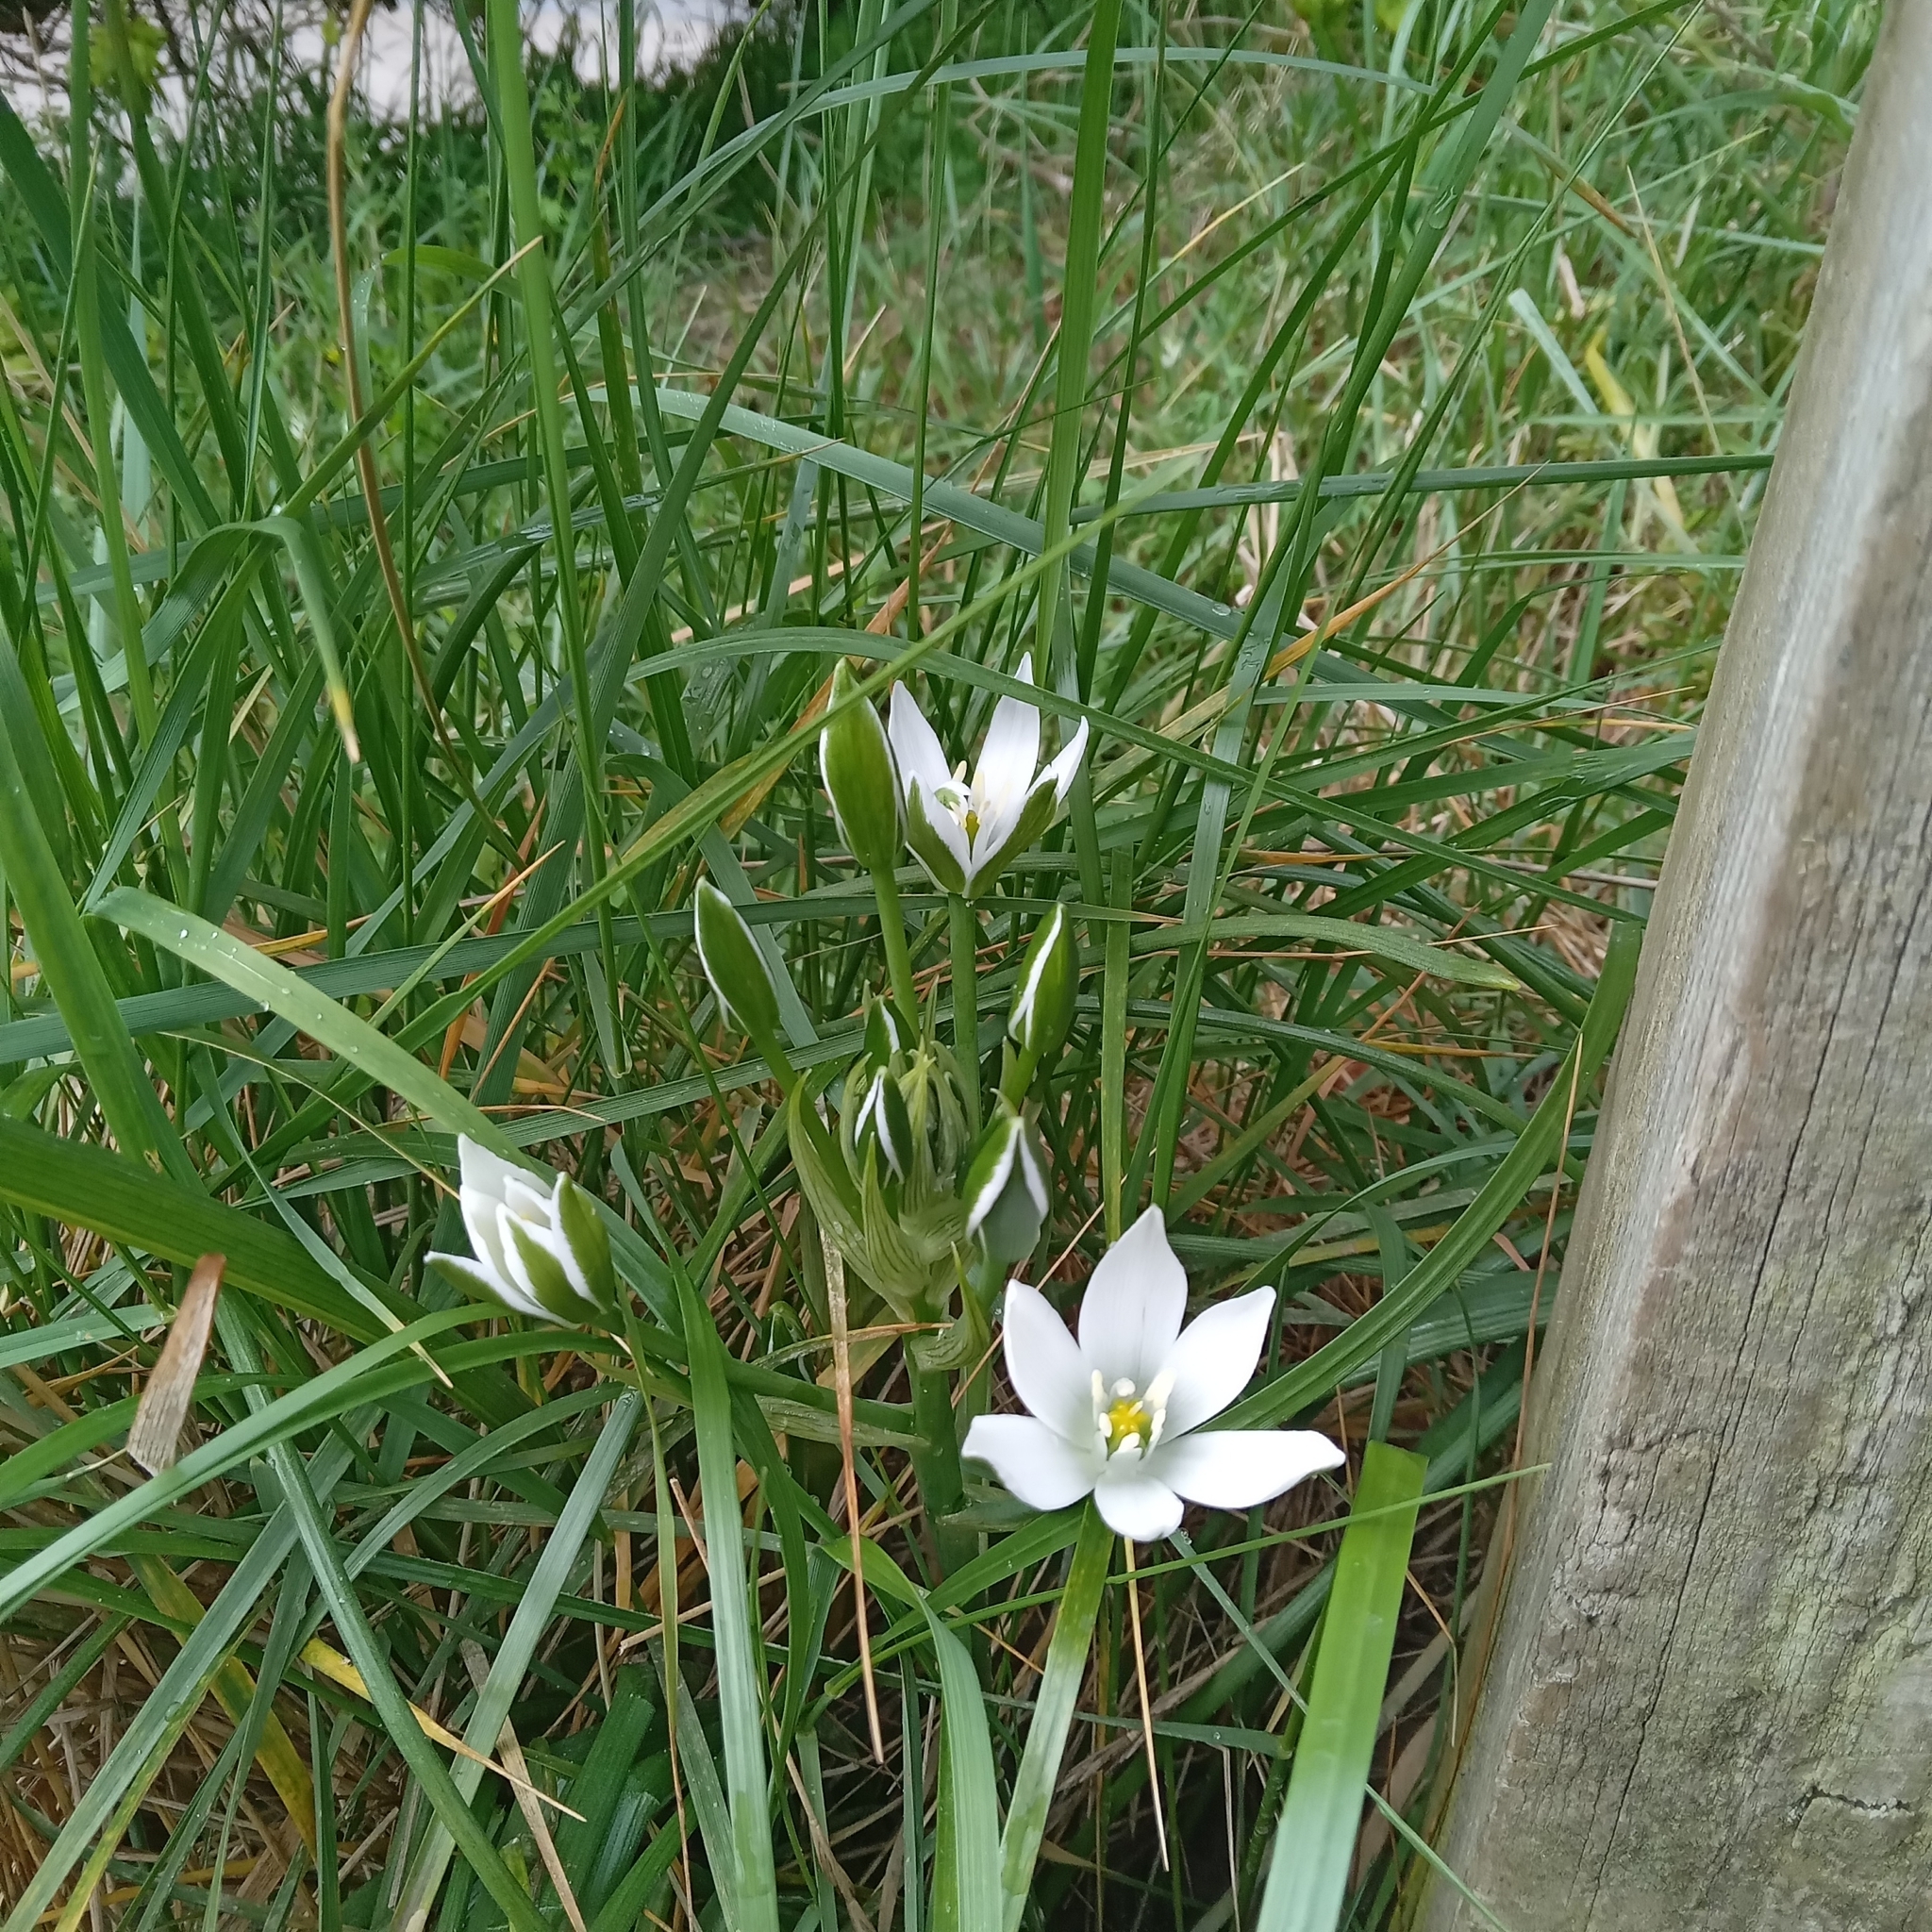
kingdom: Plantae
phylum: Tracheophyta
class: Liliopsida
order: Asparagales
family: Asparagaceae
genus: Ornithogalum
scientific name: Ornithogalum umbellatum
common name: Garden star-of-bethlehem
